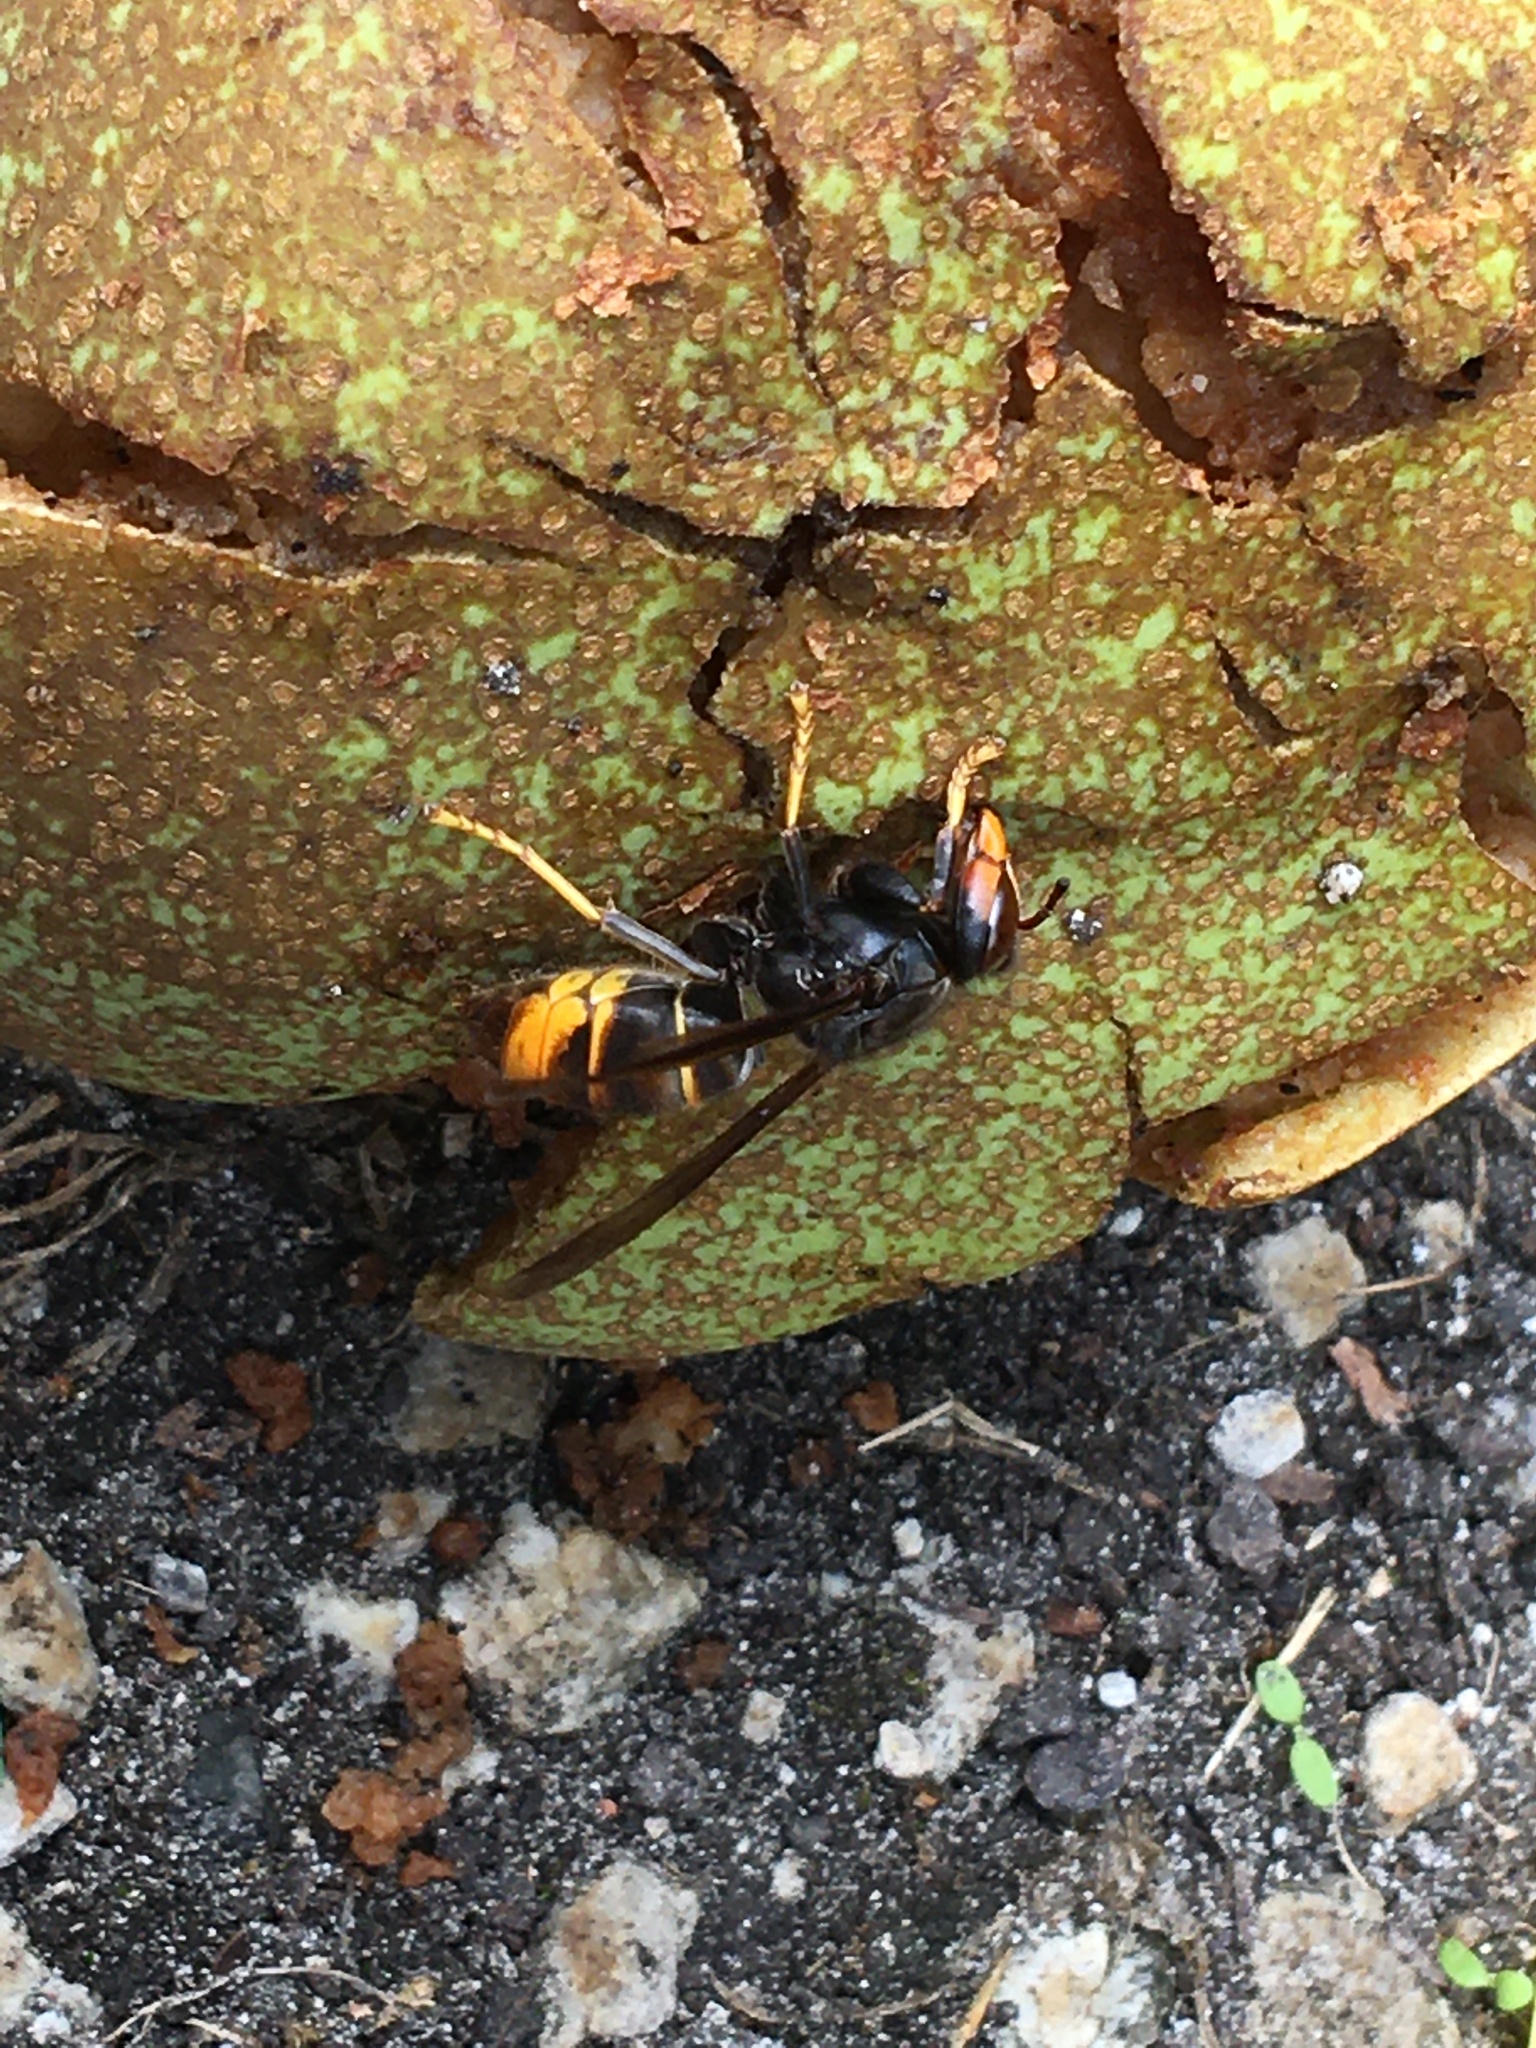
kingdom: Animalia
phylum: Arthropoda
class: Insecta
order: Hymenoptera
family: Vespidae
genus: Vespa
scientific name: Vespa velutina
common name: Asian hornet
